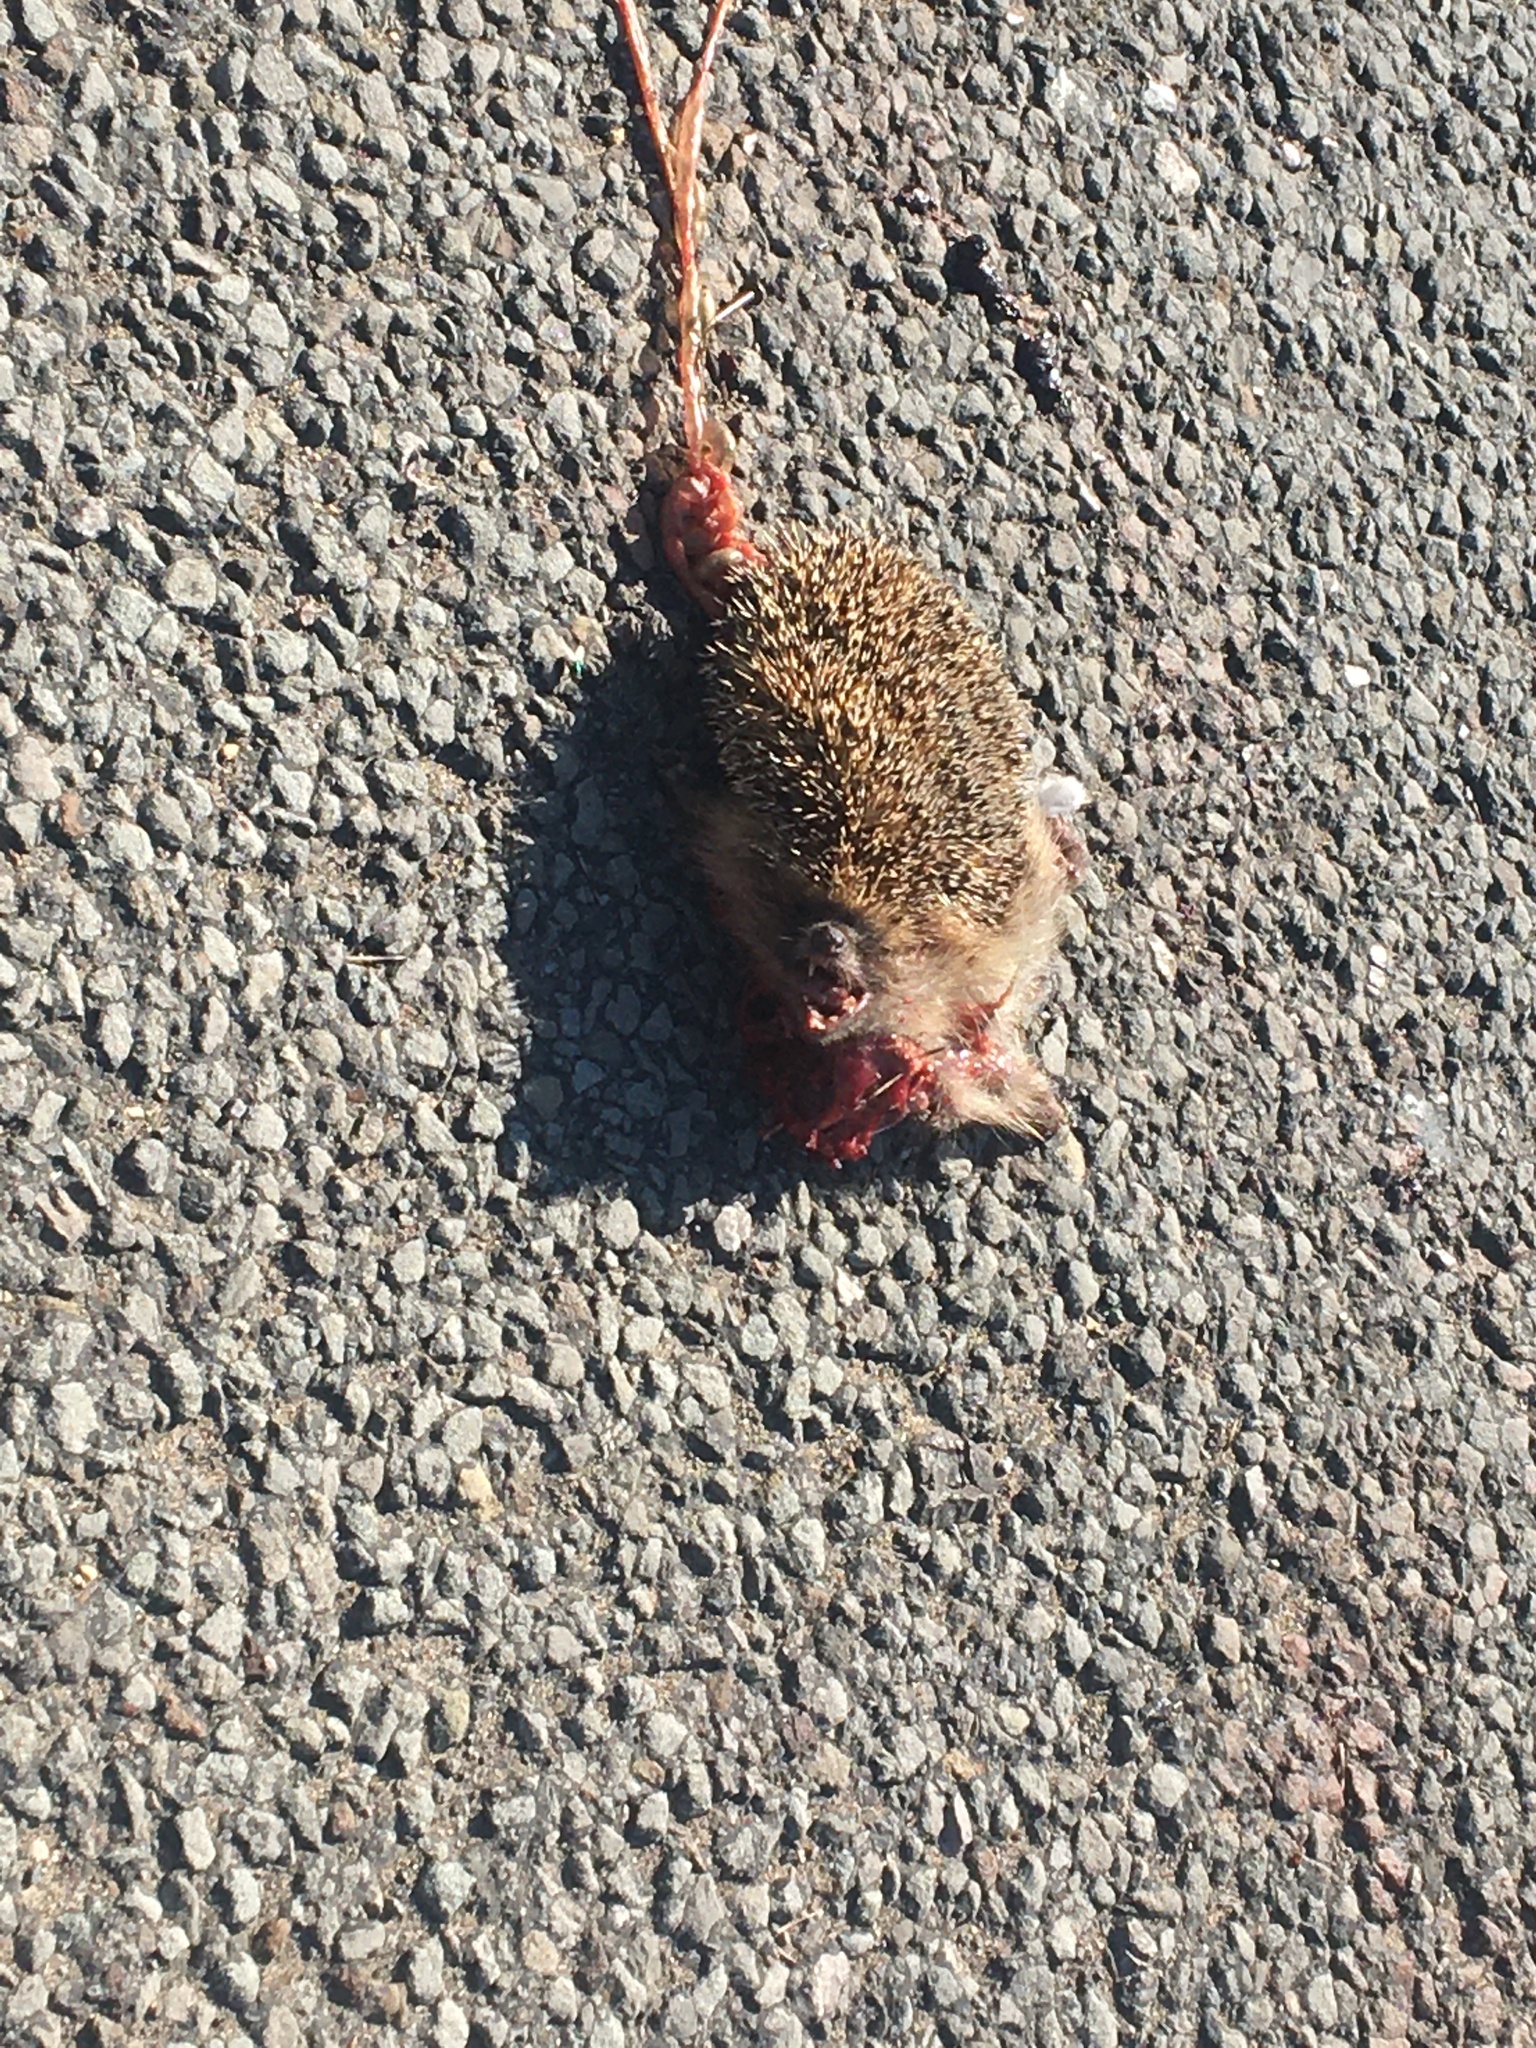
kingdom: Animalia
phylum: Chordata
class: Mammalia
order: Erinaceomorpha
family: Erinaceidae
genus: Erinaceus
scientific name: Erinaceus europaeus
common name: West european hedgehog
